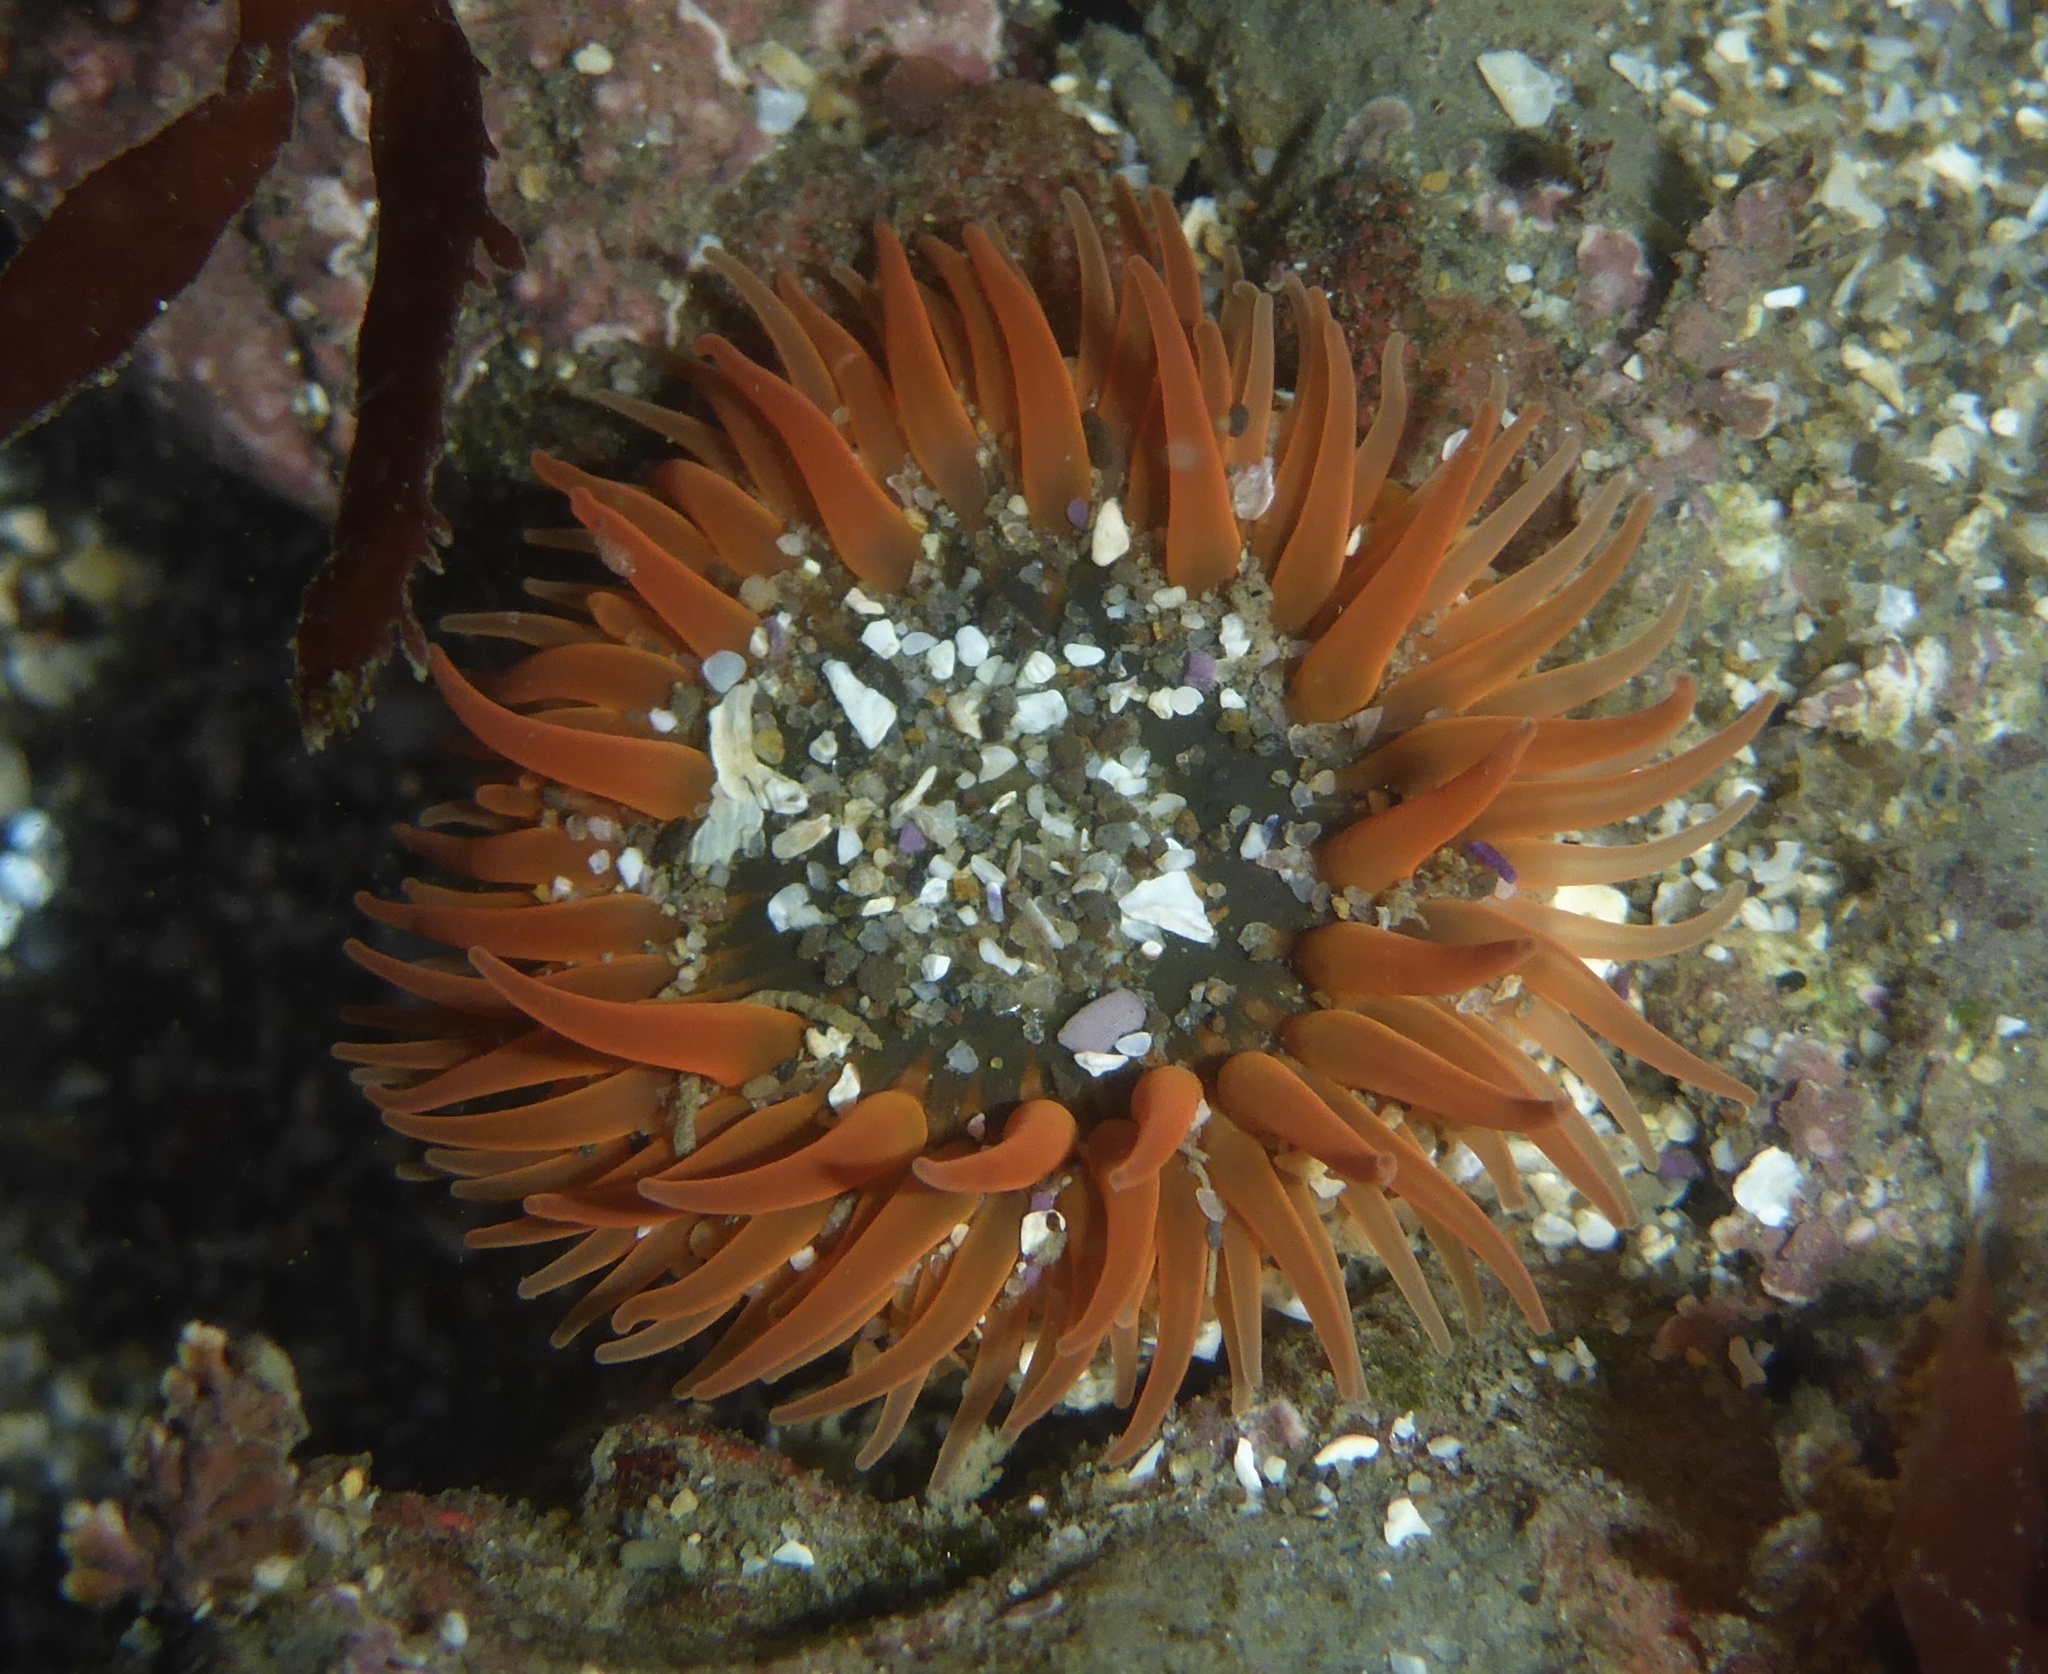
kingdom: Animalia
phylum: Cnidaria
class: Anthozoa
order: Actiniaria
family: Actiniidae
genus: Anthopleura
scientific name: Anthopleura artemisia
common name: Buried sea anemone
